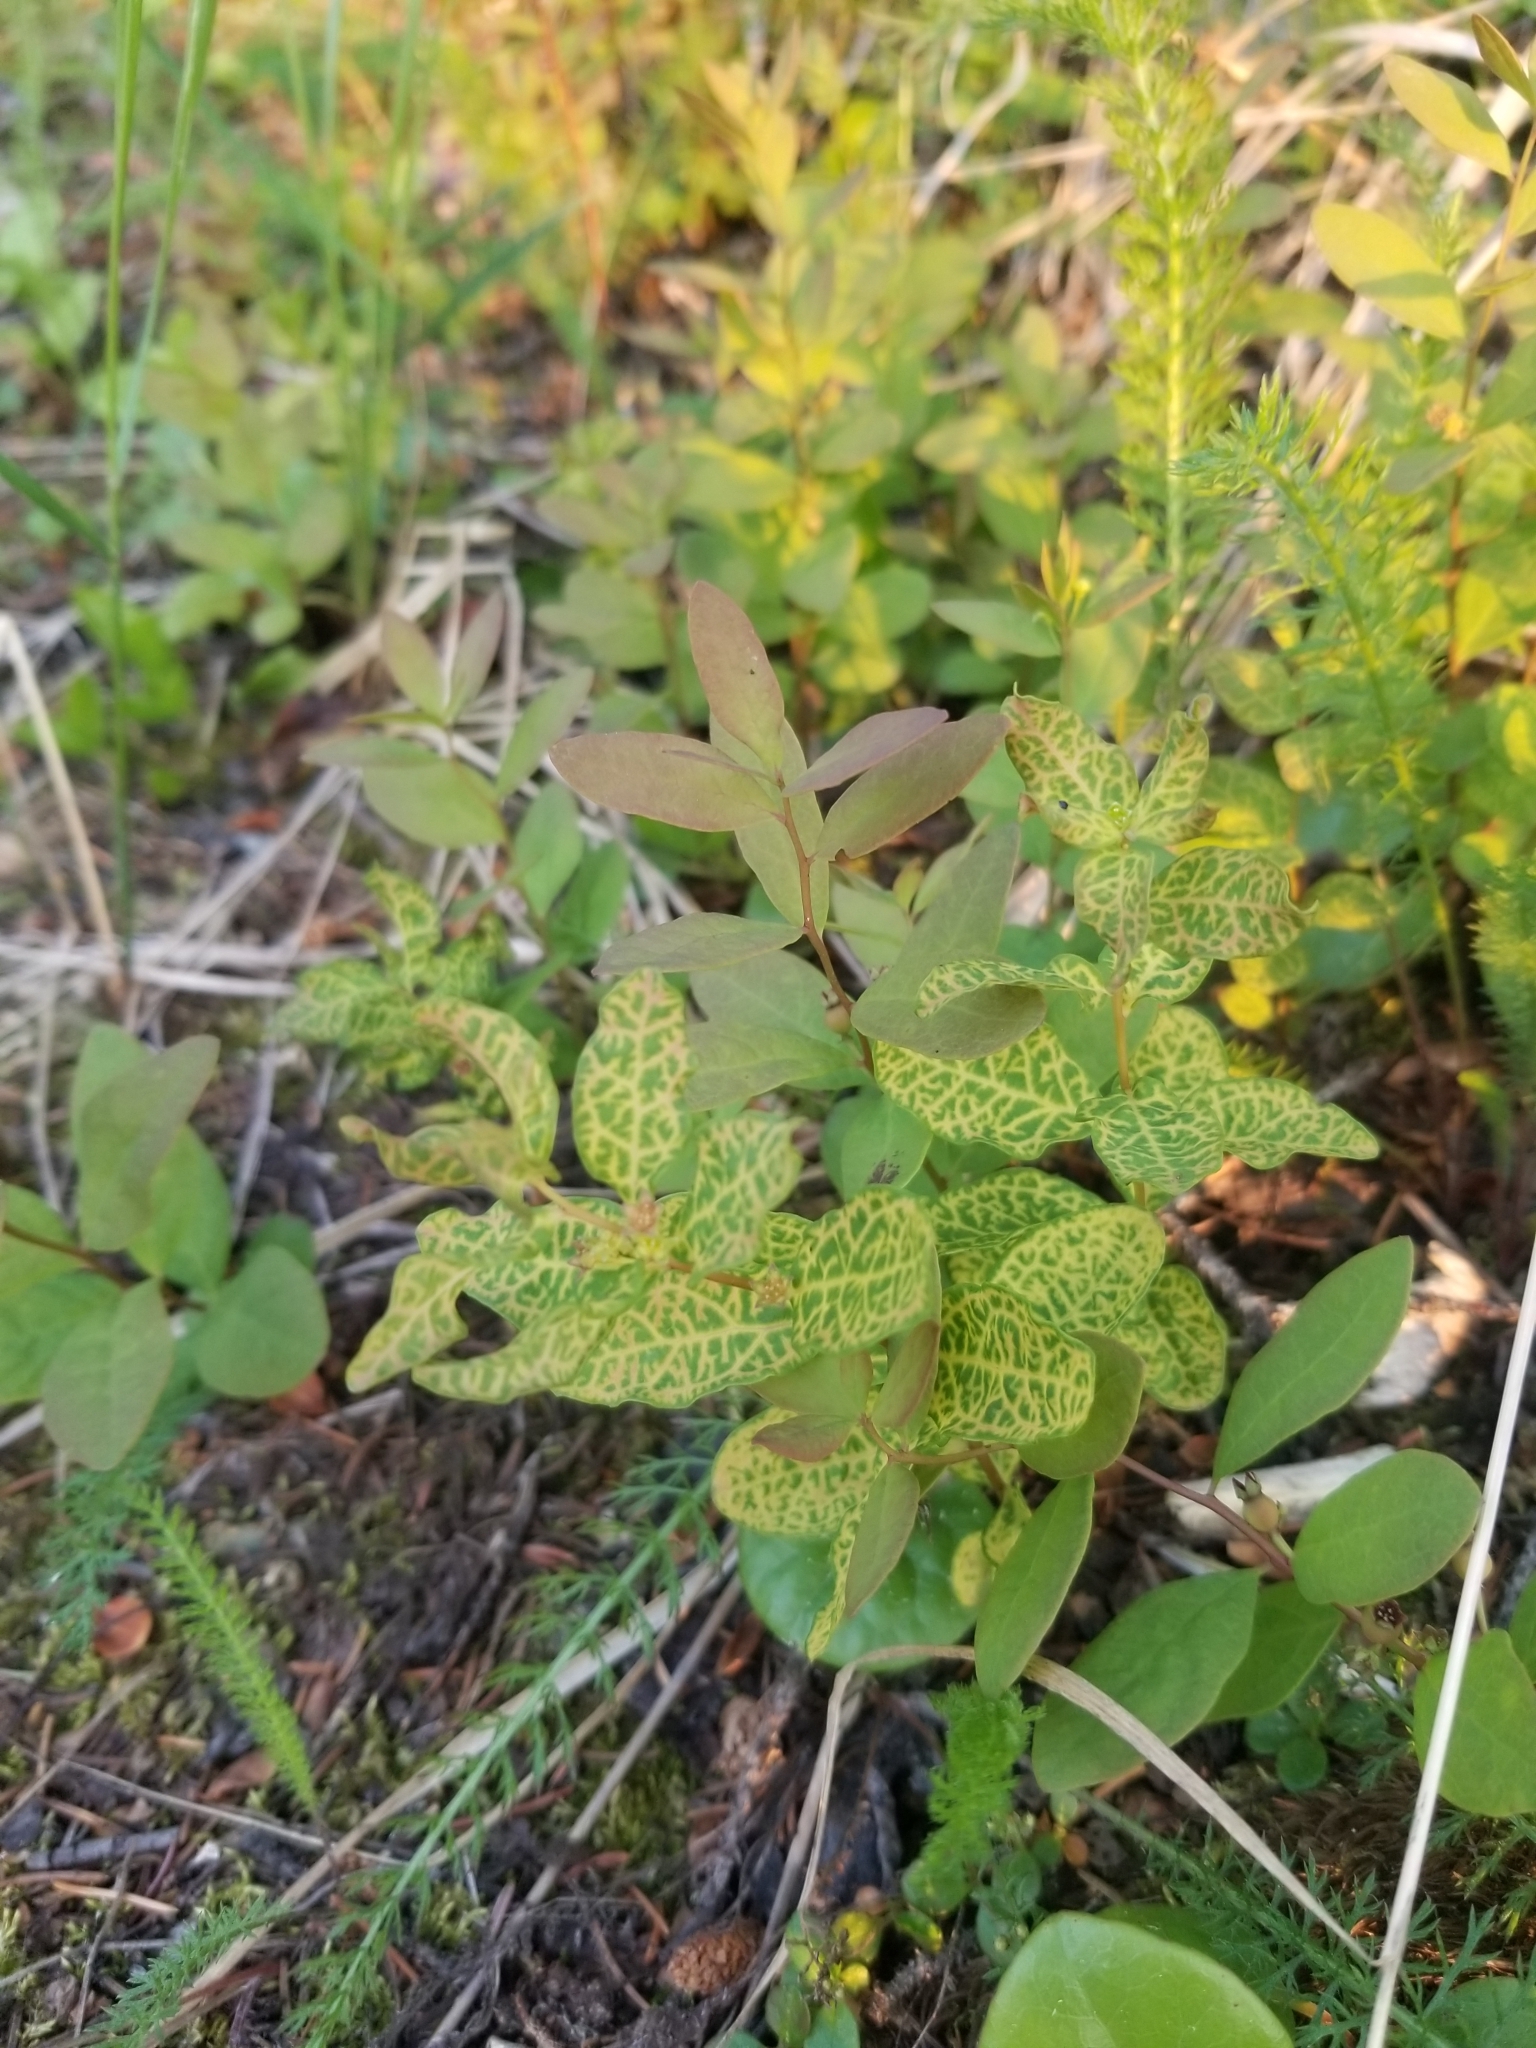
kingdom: Plantae
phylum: Tracheophyta
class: Magnoliopsida
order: Santalales
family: Comandraceae
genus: Geocaulon
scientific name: Geocaulon lividum
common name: Earthberry
